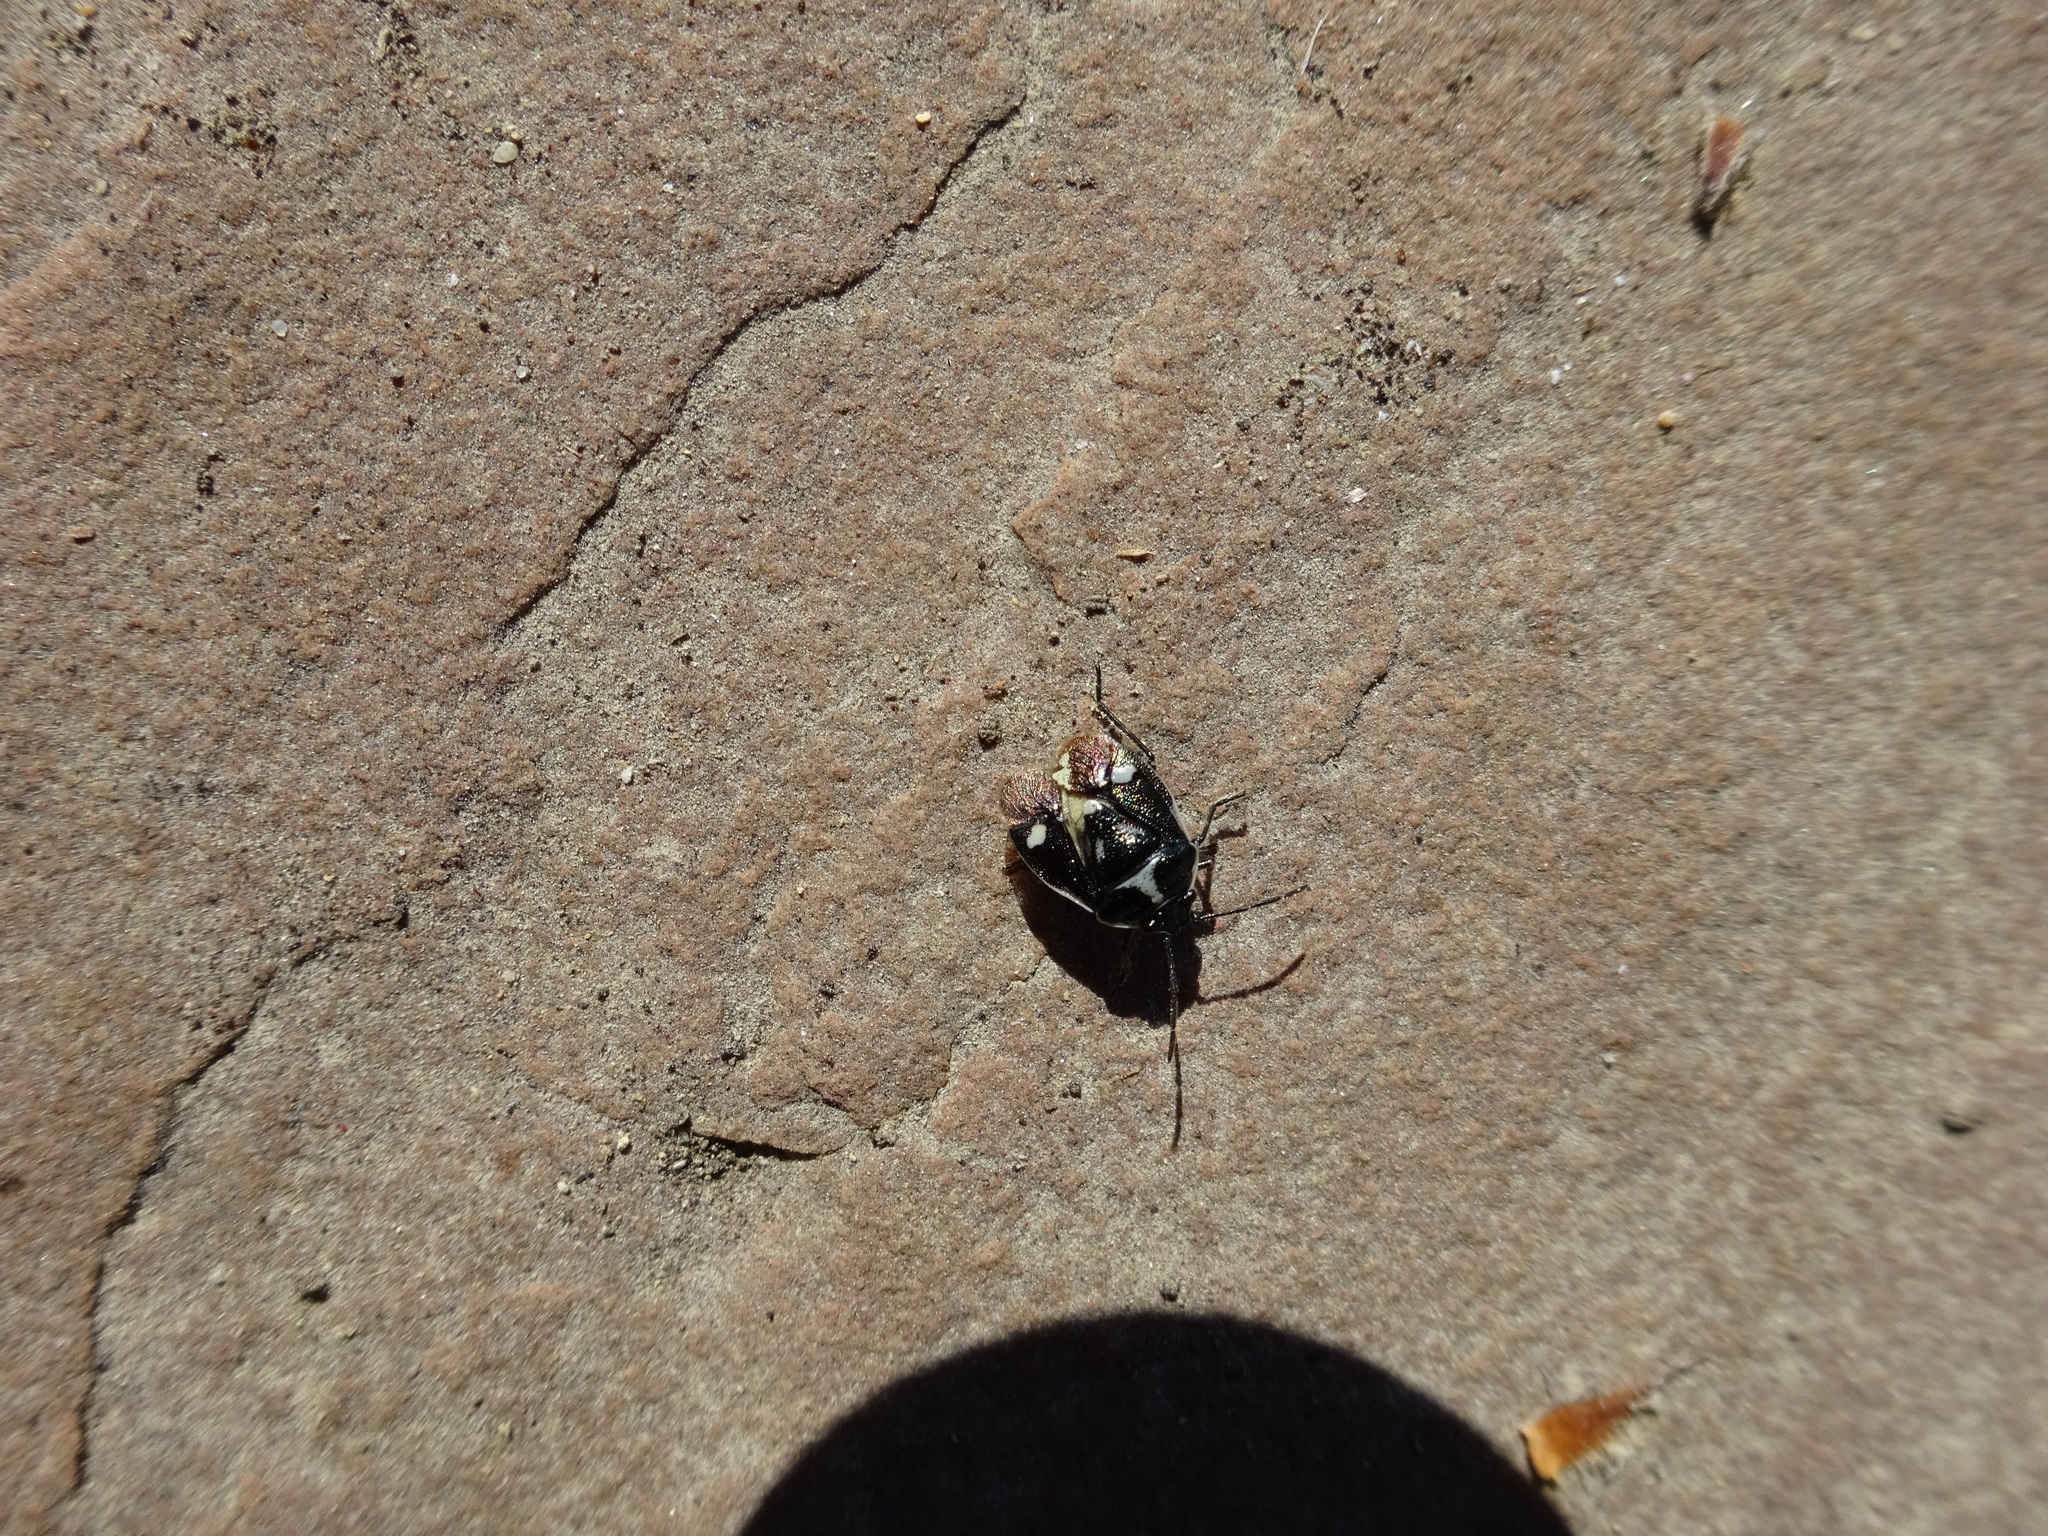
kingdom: Animalia
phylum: Arthropoda
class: Insecta
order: Hemiptera
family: Pentatomidae
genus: Eurydema
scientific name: Eurydema oleracea
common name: Cabbage bug
